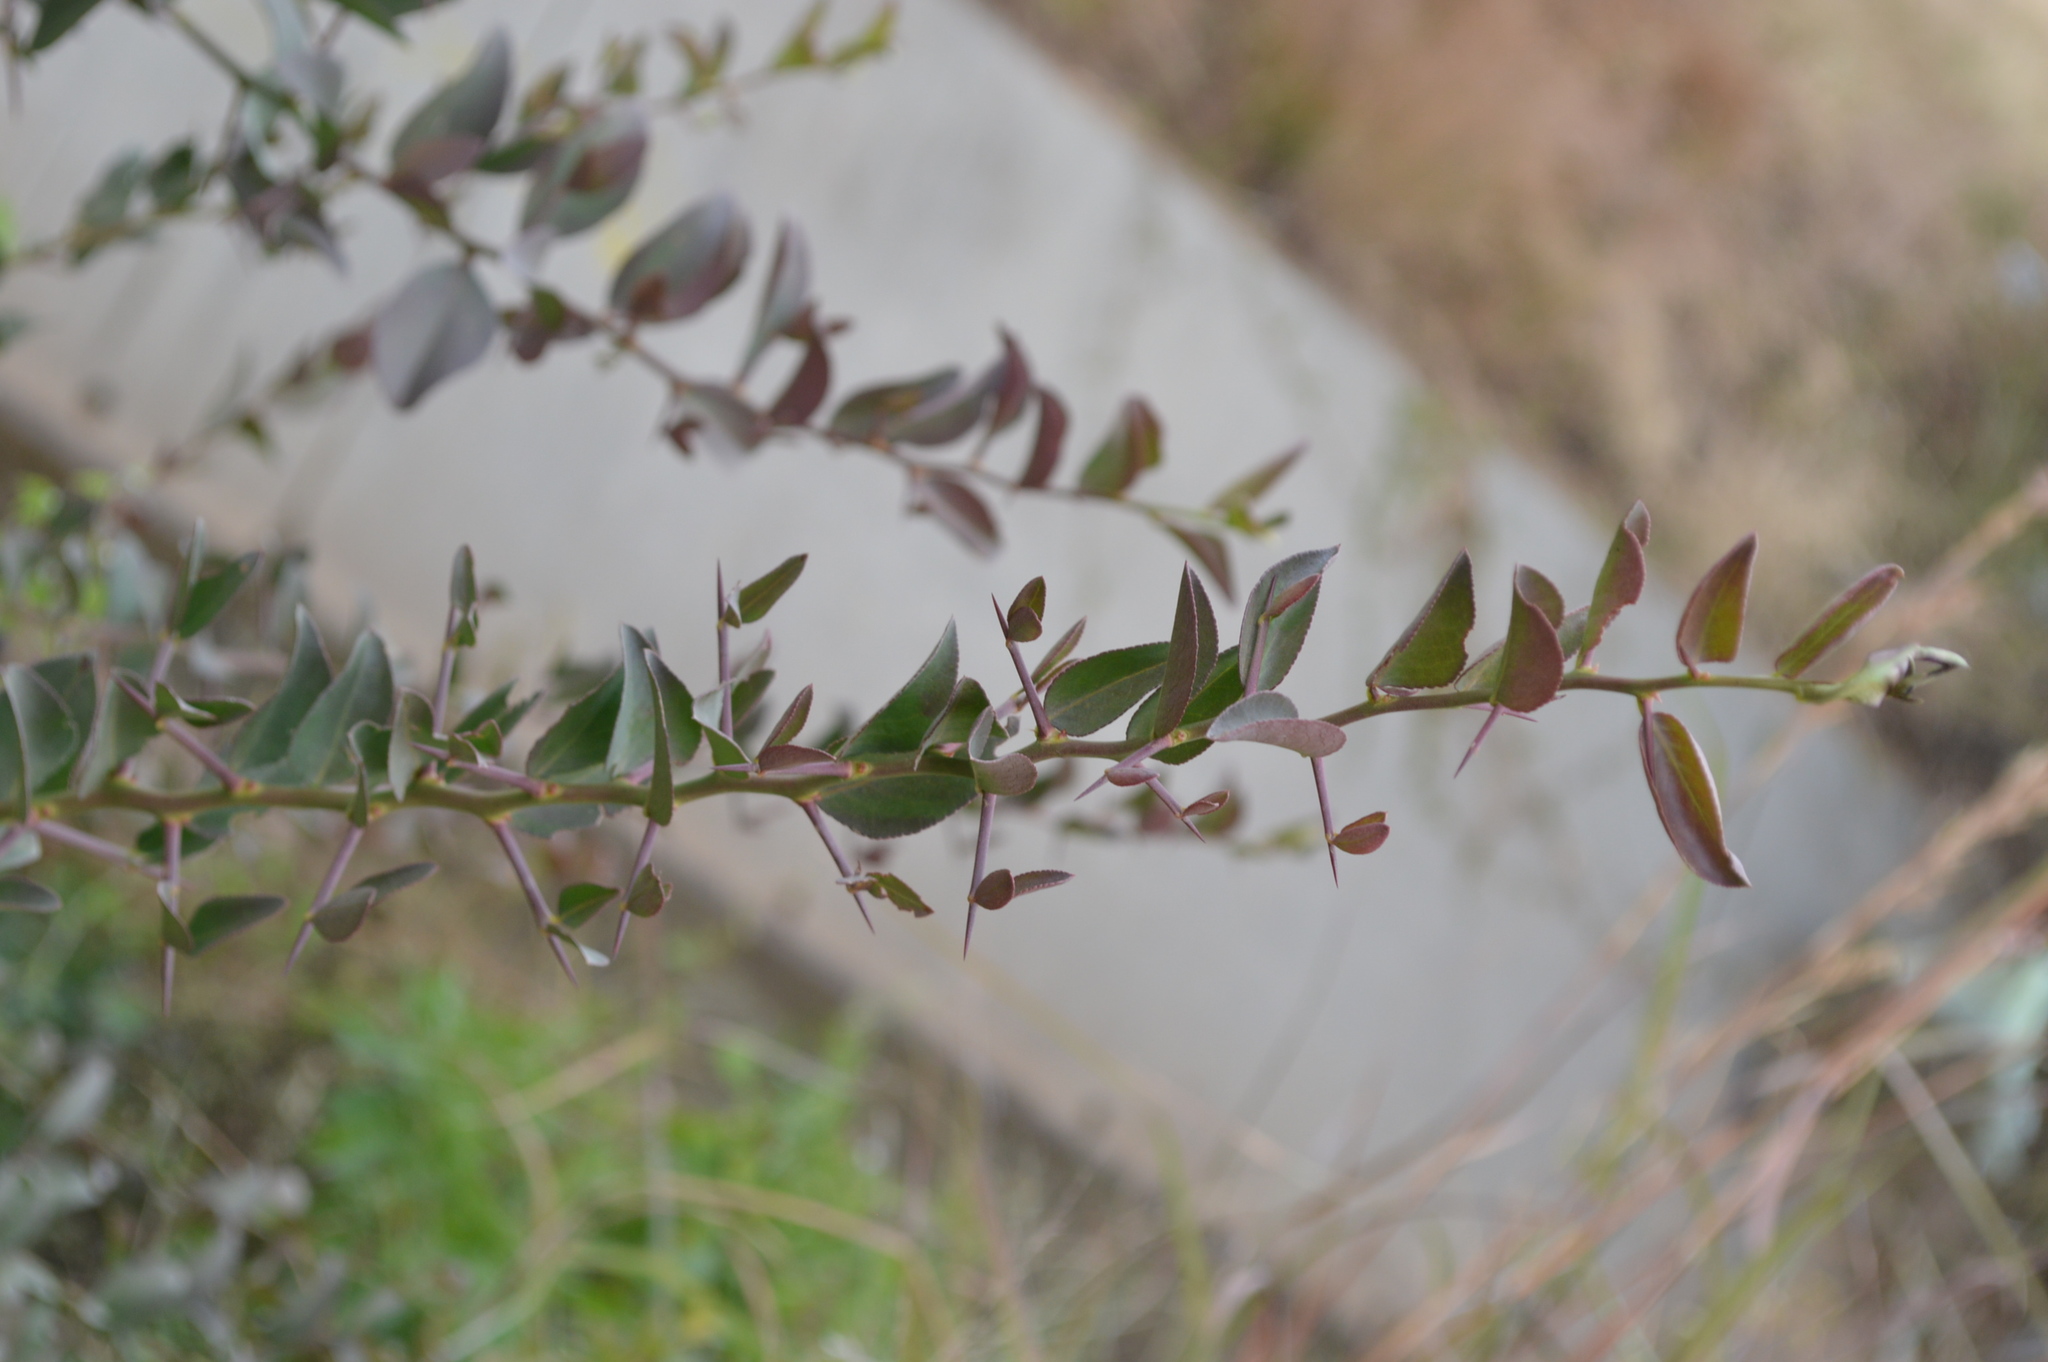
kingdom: Plantae
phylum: Tracheophyta
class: Magnoliopsida
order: Celastrales
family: Celastraceae
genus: Gymnosporia
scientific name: Gymnosporia buxifolia
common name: Common spike-thorn
